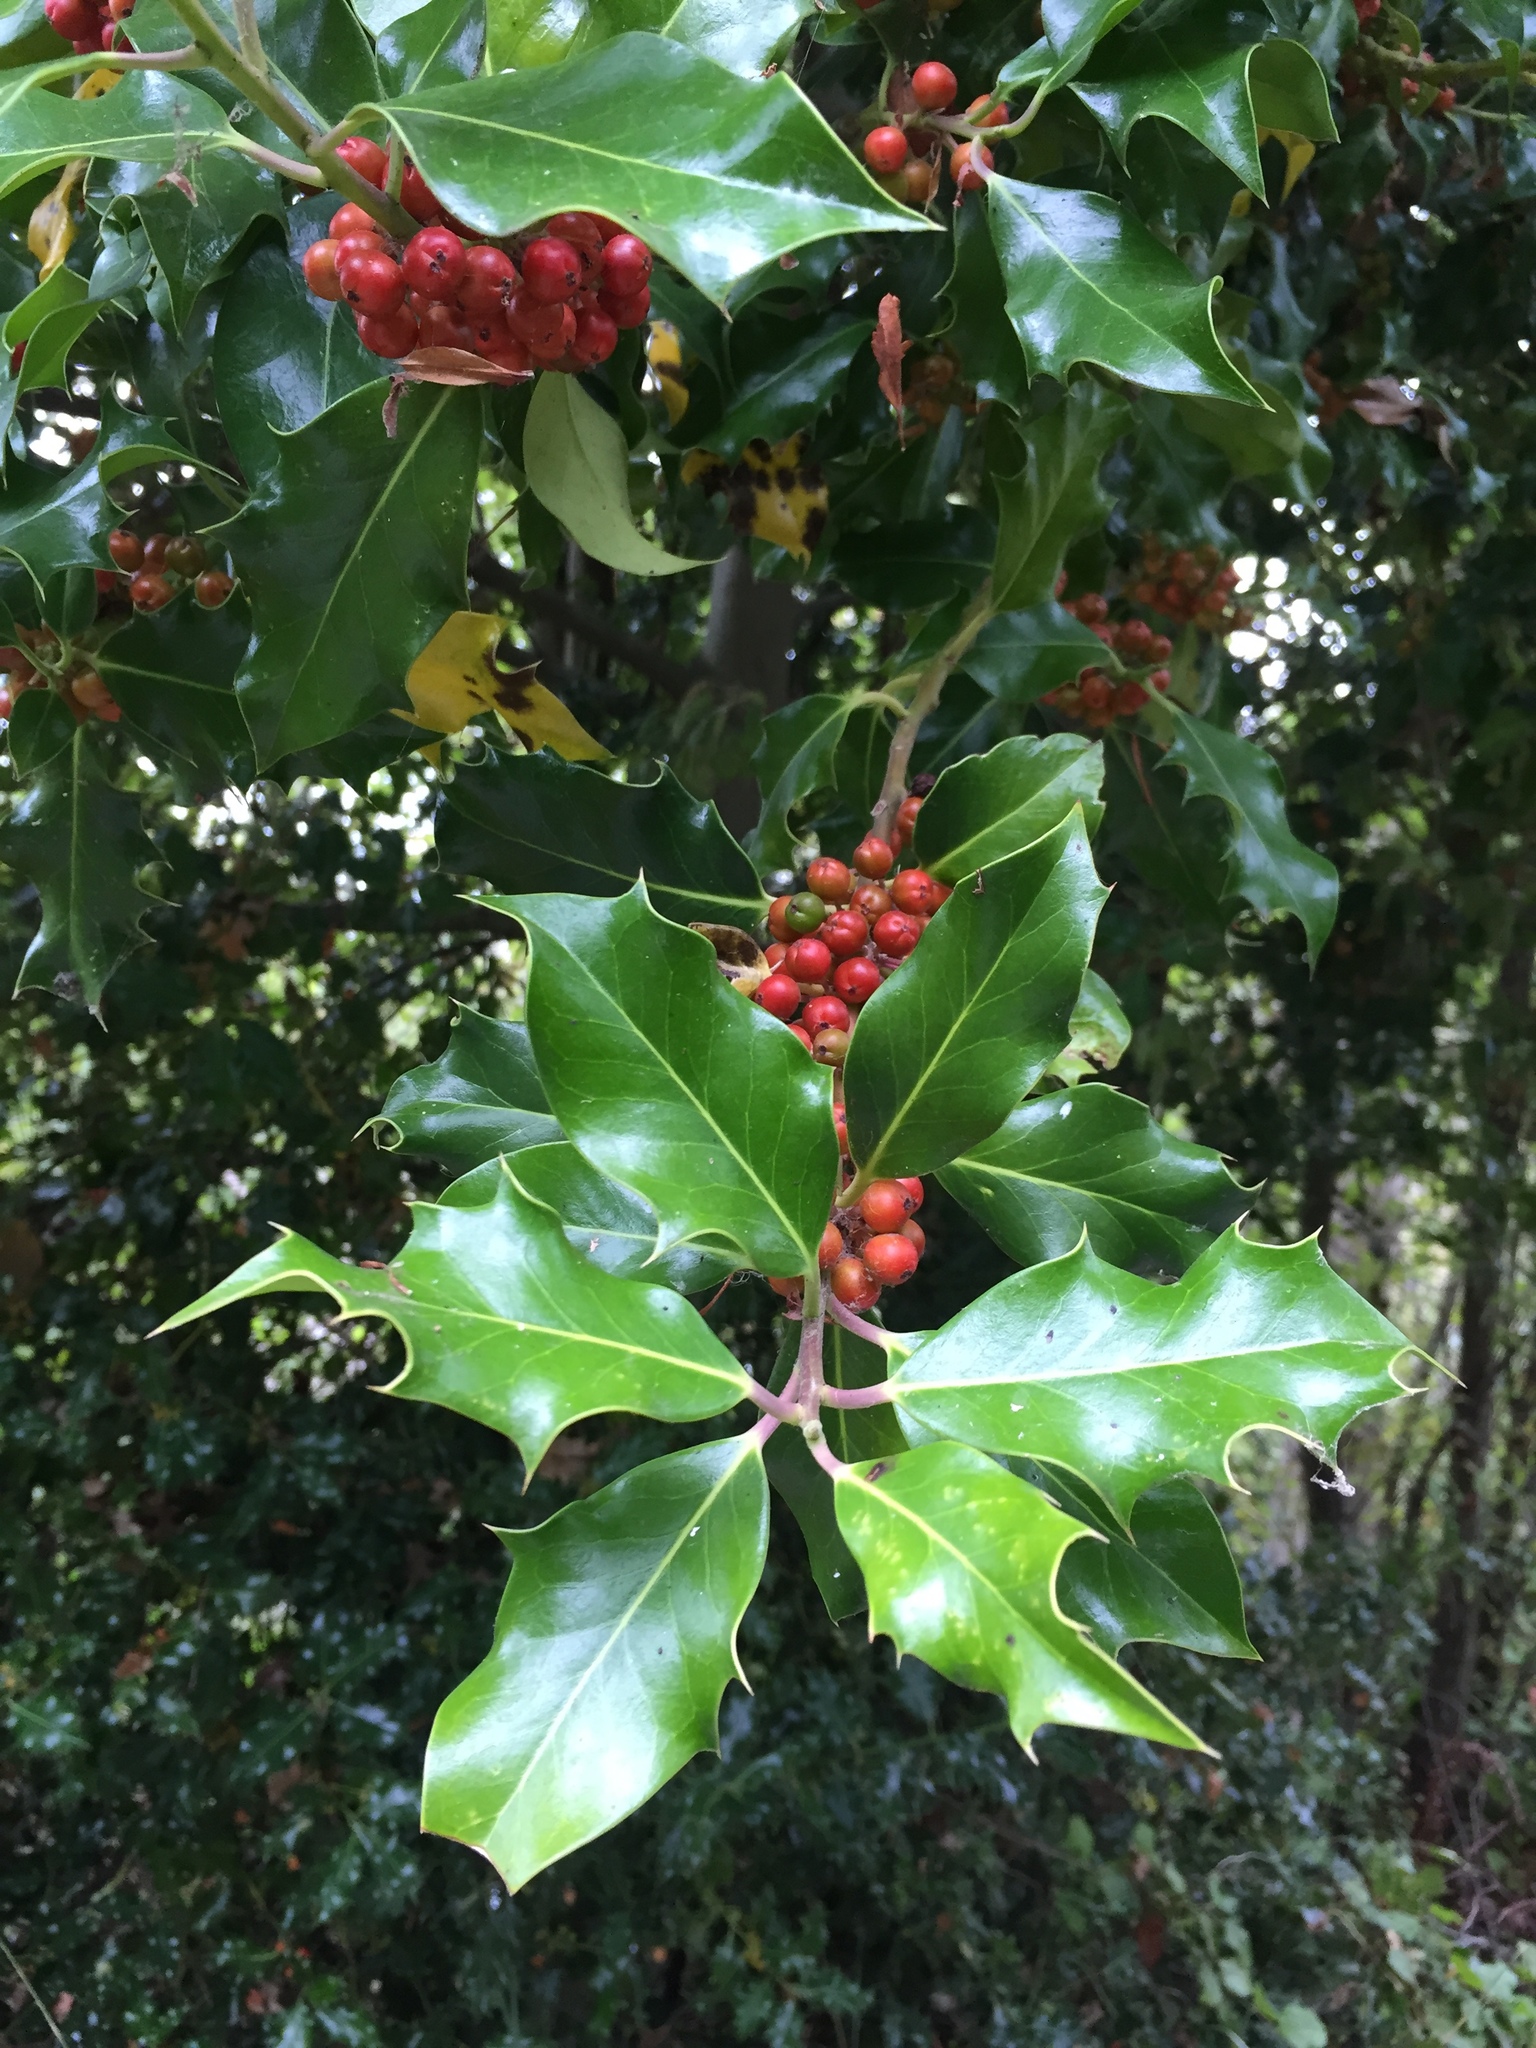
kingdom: Plantae
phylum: Tracheophyta
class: Magnoliopsida
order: Aquifoliales
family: Aquifoliaceae
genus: Ilex
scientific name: Ilex aquifolium
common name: English holly
